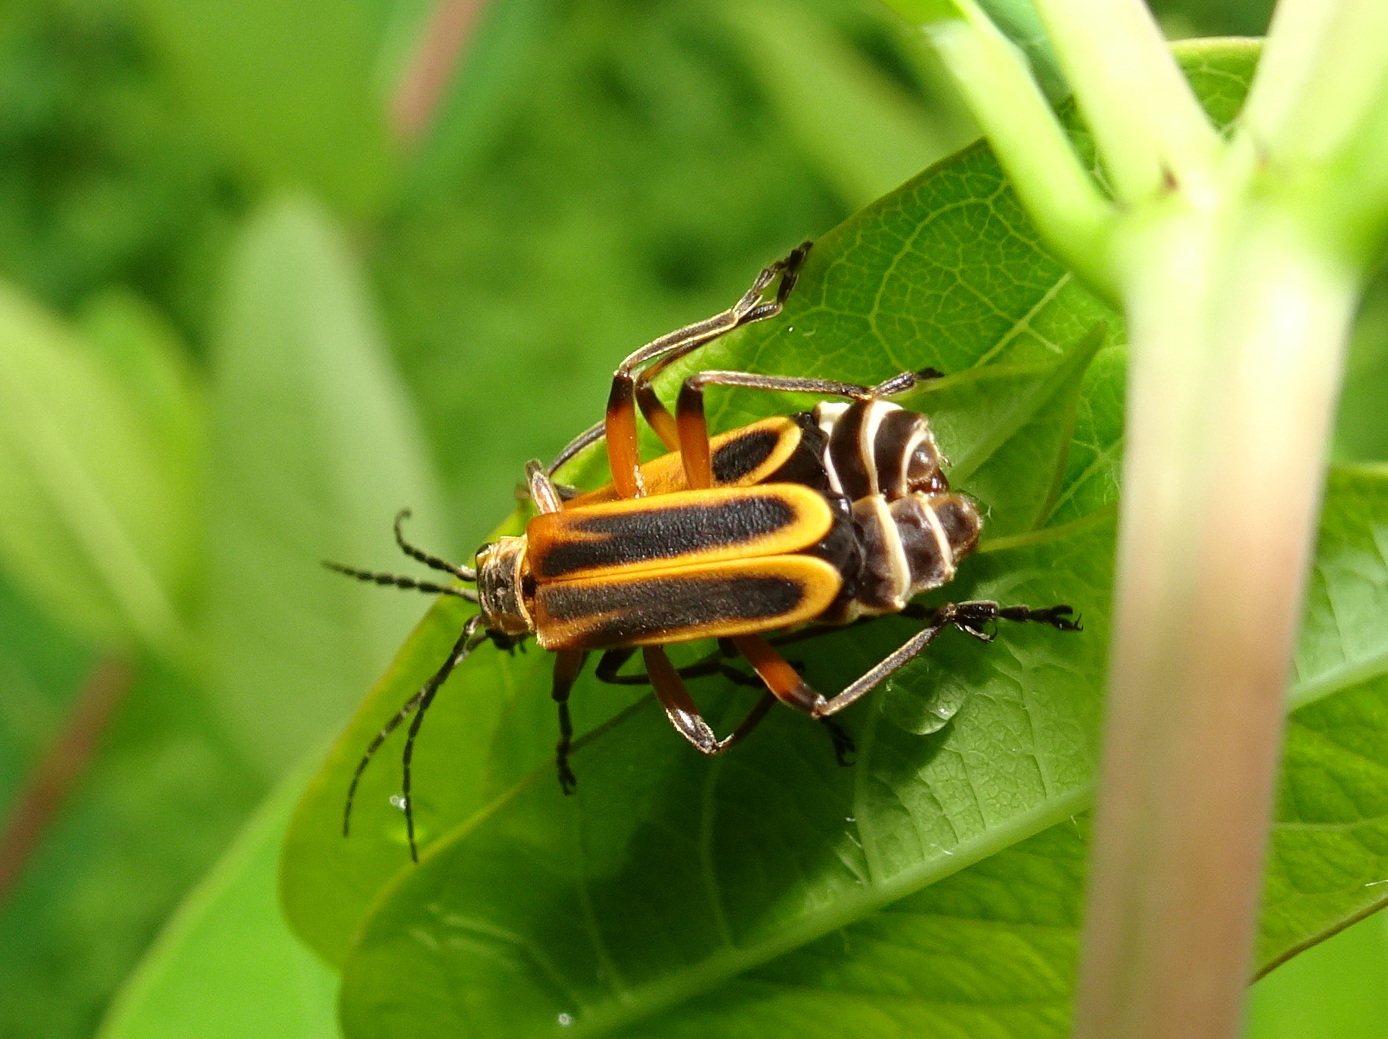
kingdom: Animalia
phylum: Arthropoda
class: Insecta
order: Coleoptera
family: Cantharidae
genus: Chauliognathus
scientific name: Chauliognathus marginatus
